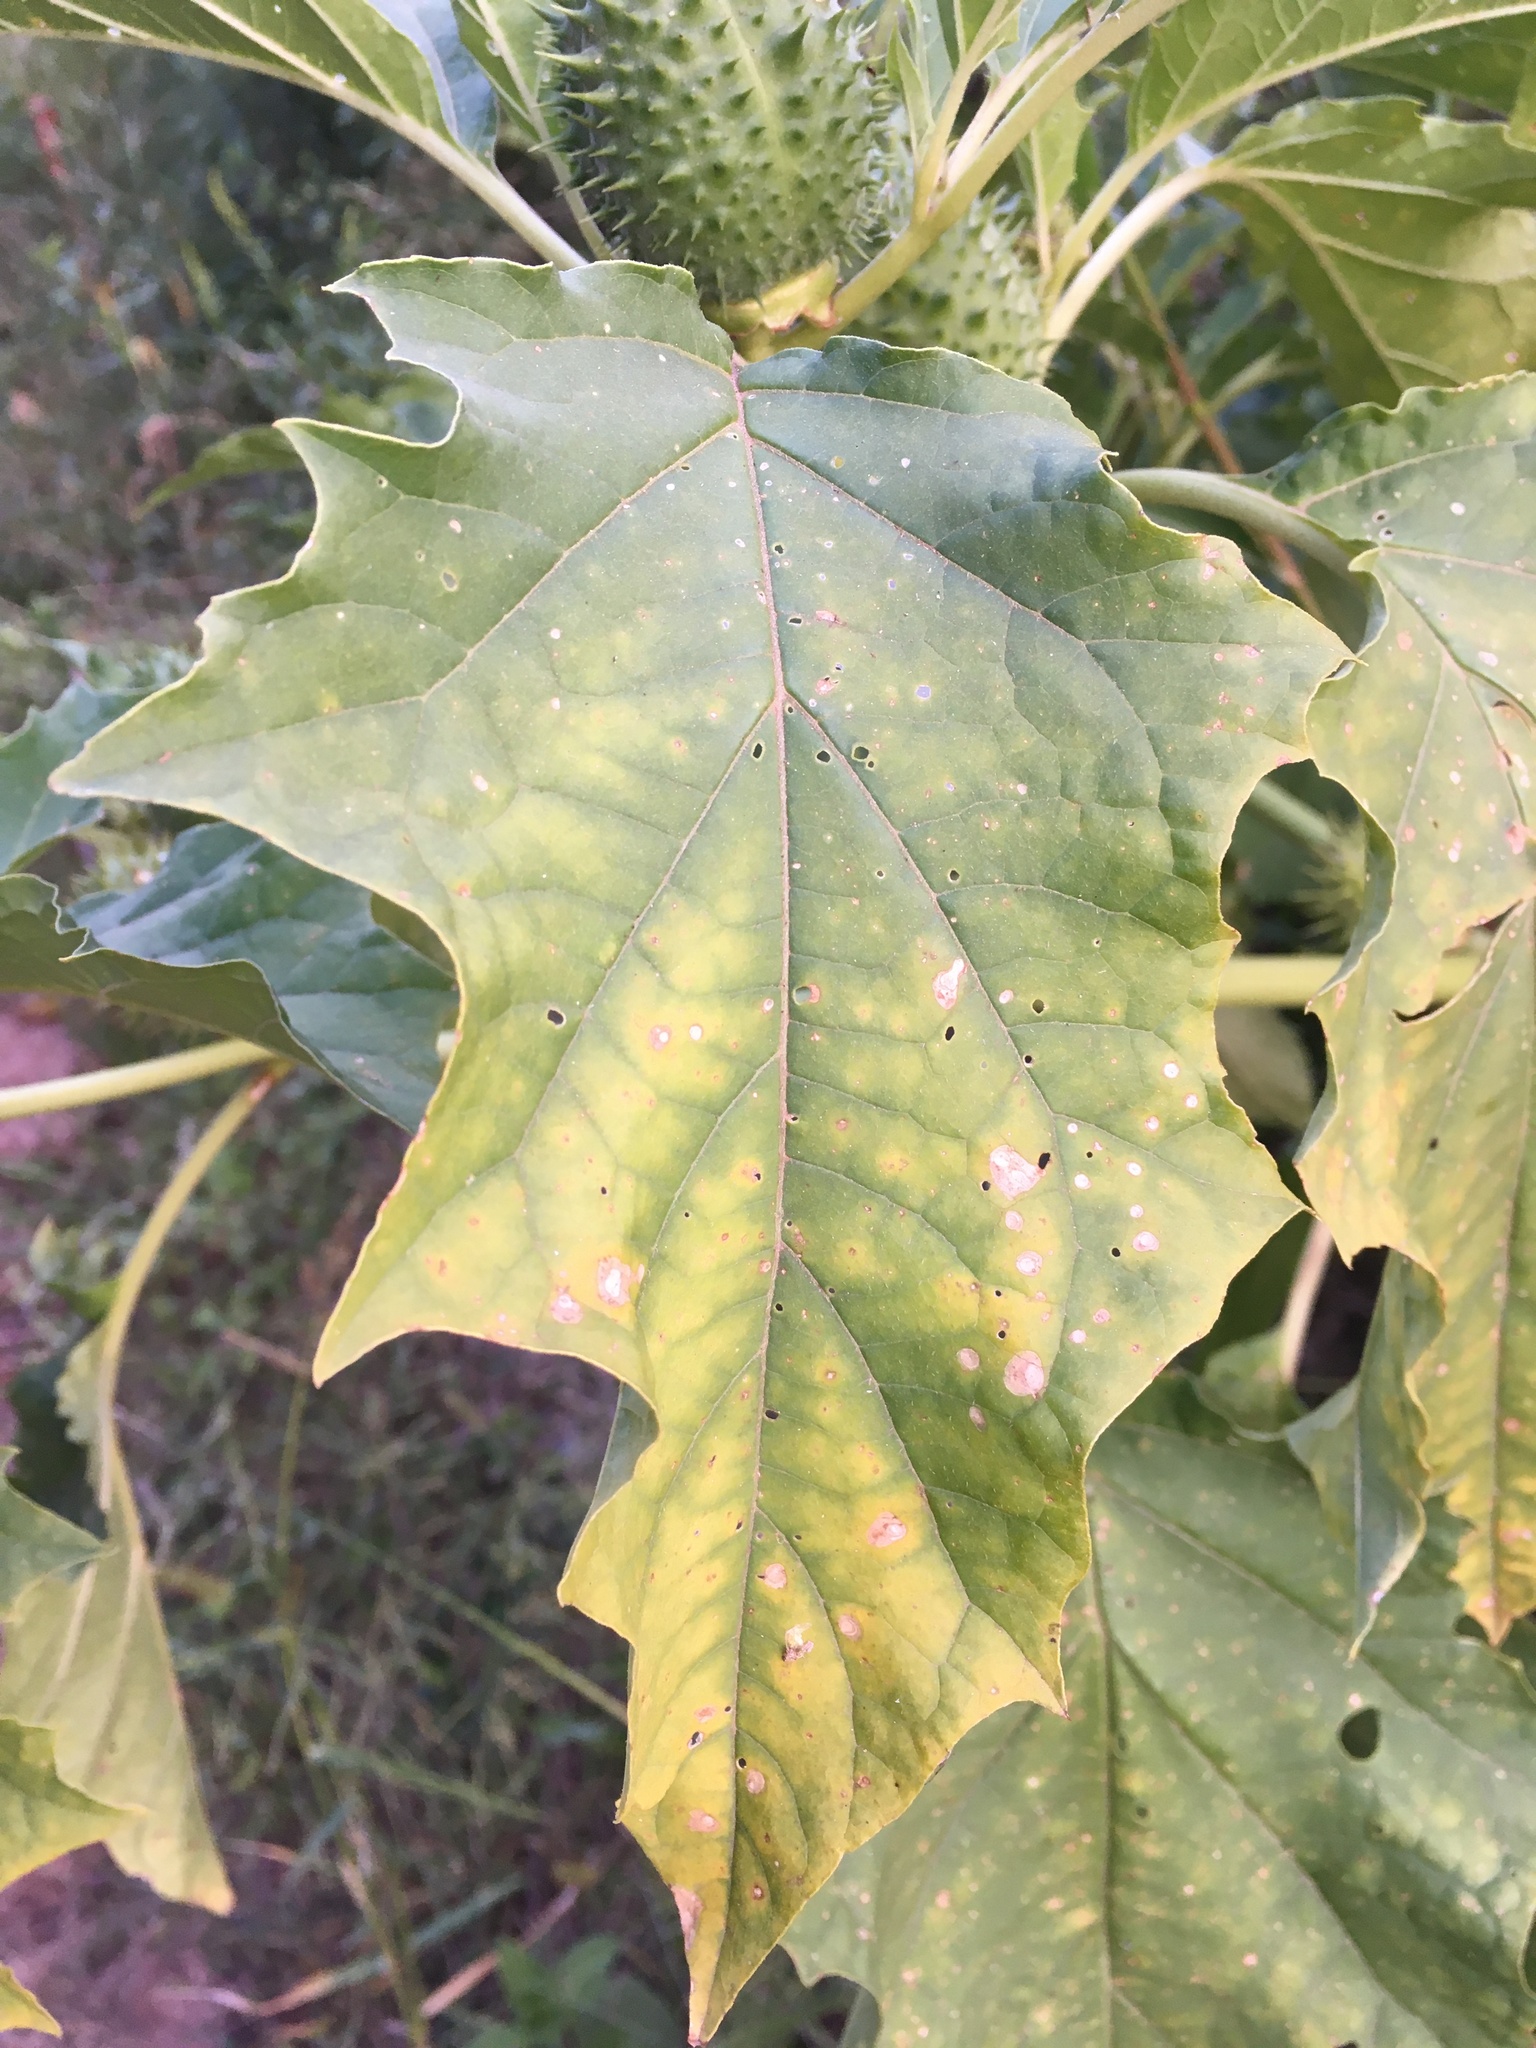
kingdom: Plantae
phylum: Tracheophyta
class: Magnoliopsida
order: Solanales
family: Solanaceae
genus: Datura
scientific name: Datura stramonium
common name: Thorn-apple
